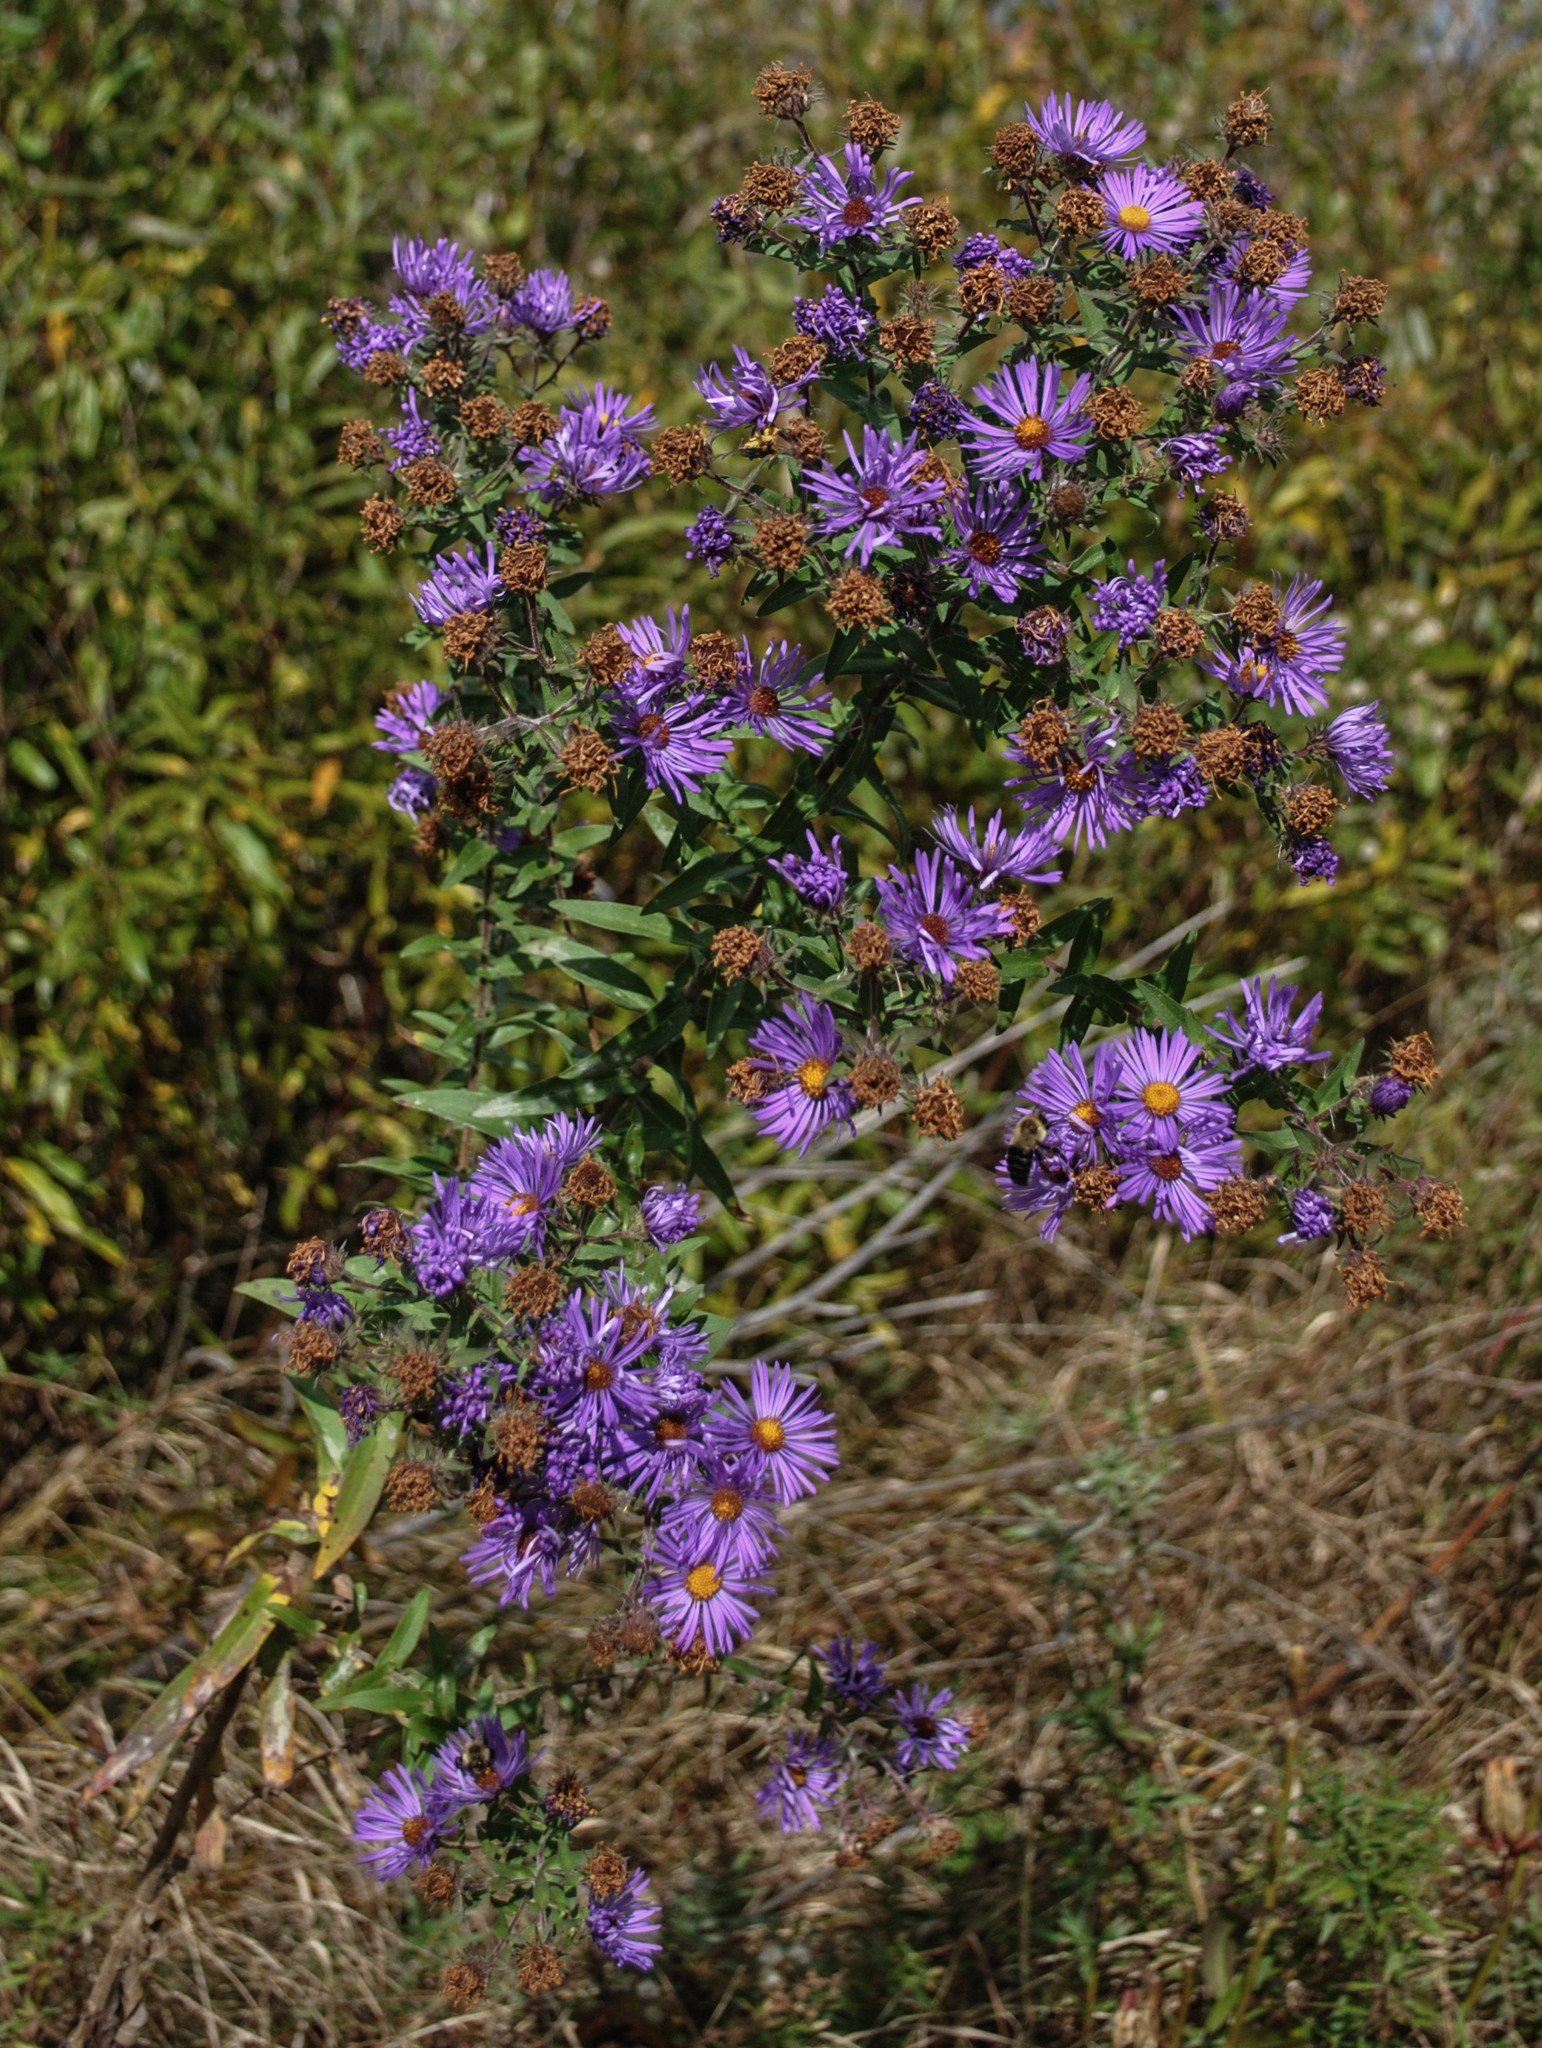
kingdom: Plantae
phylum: Tracheophyta
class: Magnoliopsida
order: Asterales
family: Asteraceae
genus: Symphyotrichum
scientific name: Symphyotrichum novae-angliae
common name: Michaelmas daisy
